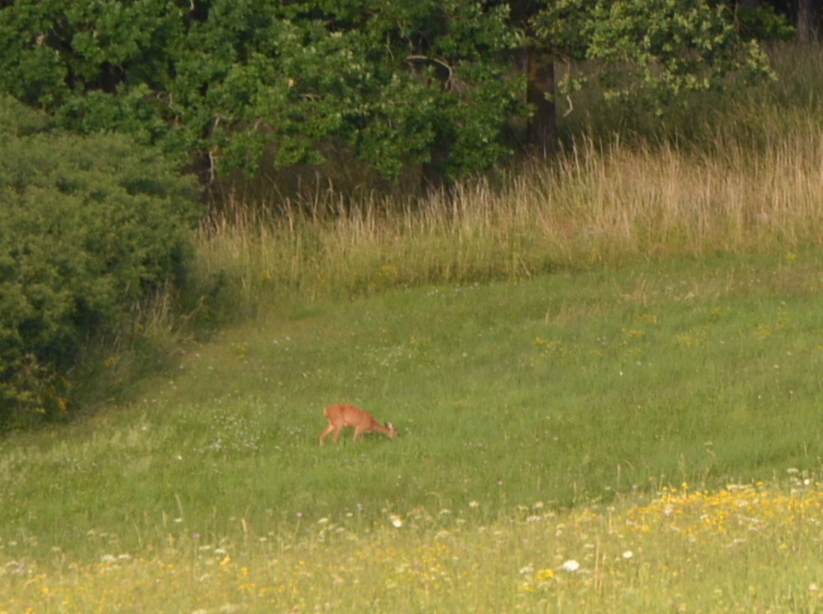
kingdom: Animalia
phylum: Chordata
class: Mammalia
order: Artiodactyla
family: Cervidae
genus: Capreolus
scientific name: Capreolus capreolus
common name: Western roe deer
